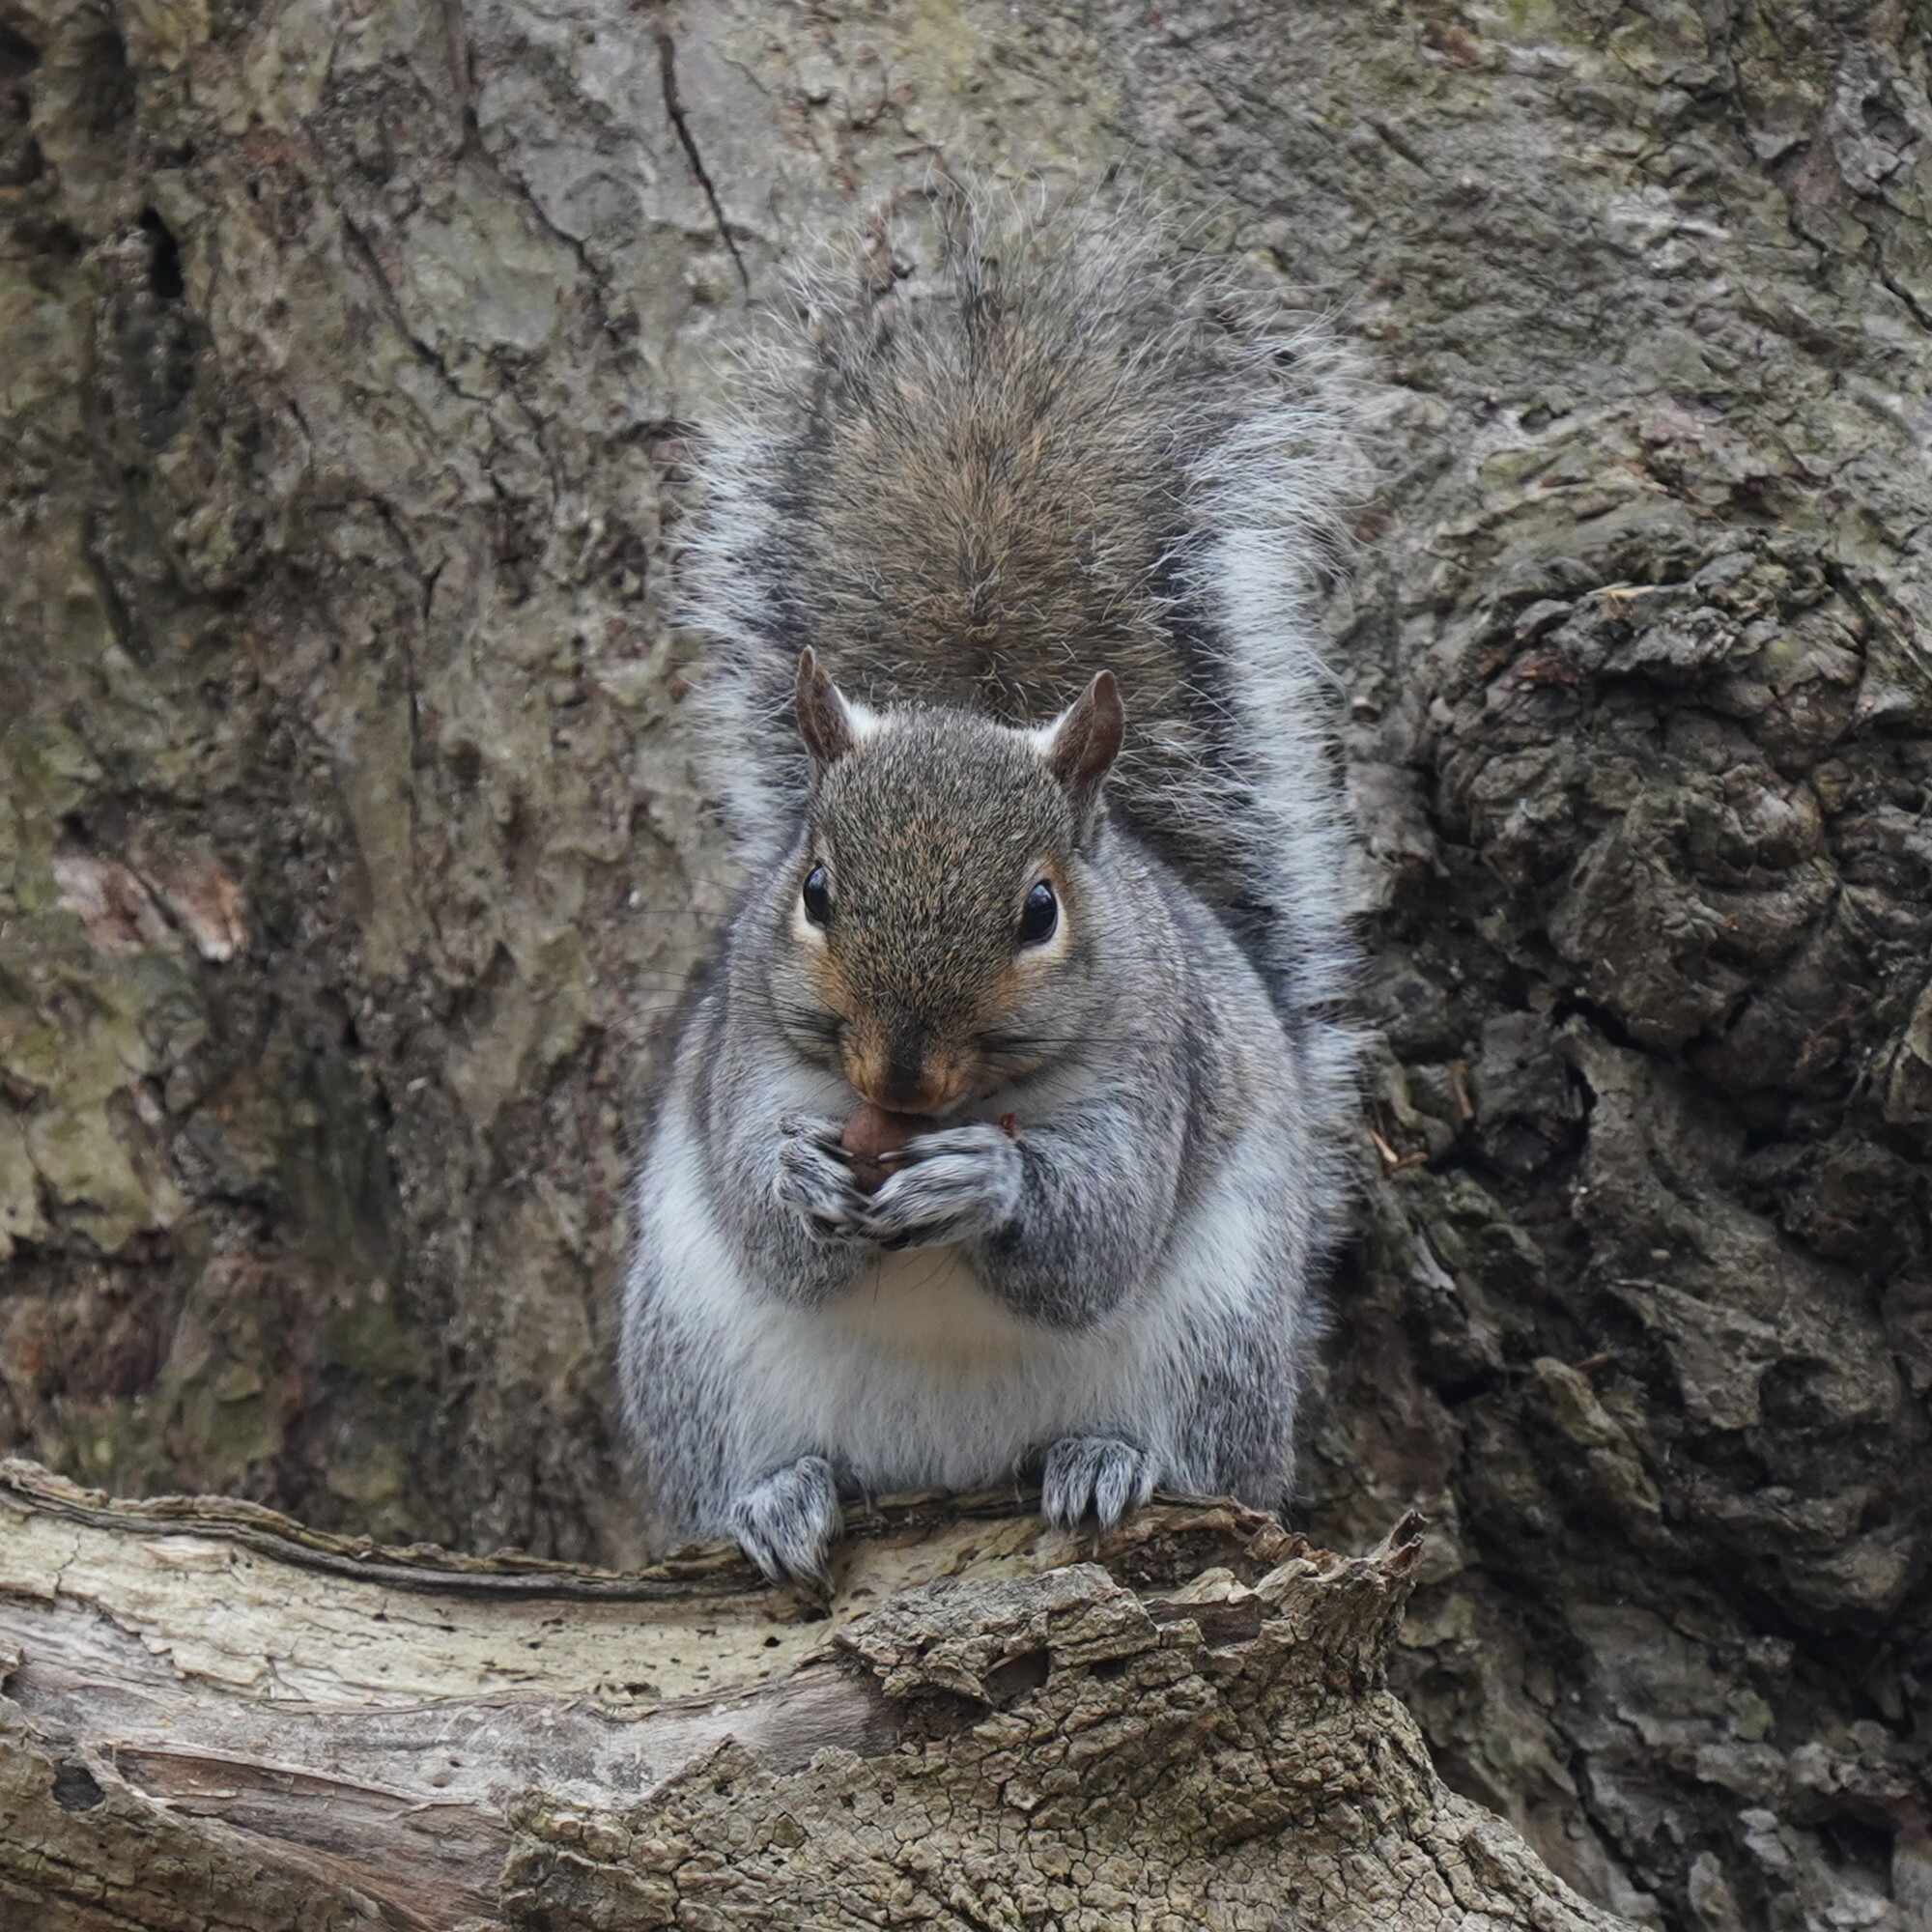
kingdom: Animalia
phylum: Chordata
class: Mammalia
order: Rodentia
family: Sciuridae
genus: Sciurus
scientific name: Sciurus carolinensis
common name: Eastern gray squirrel
